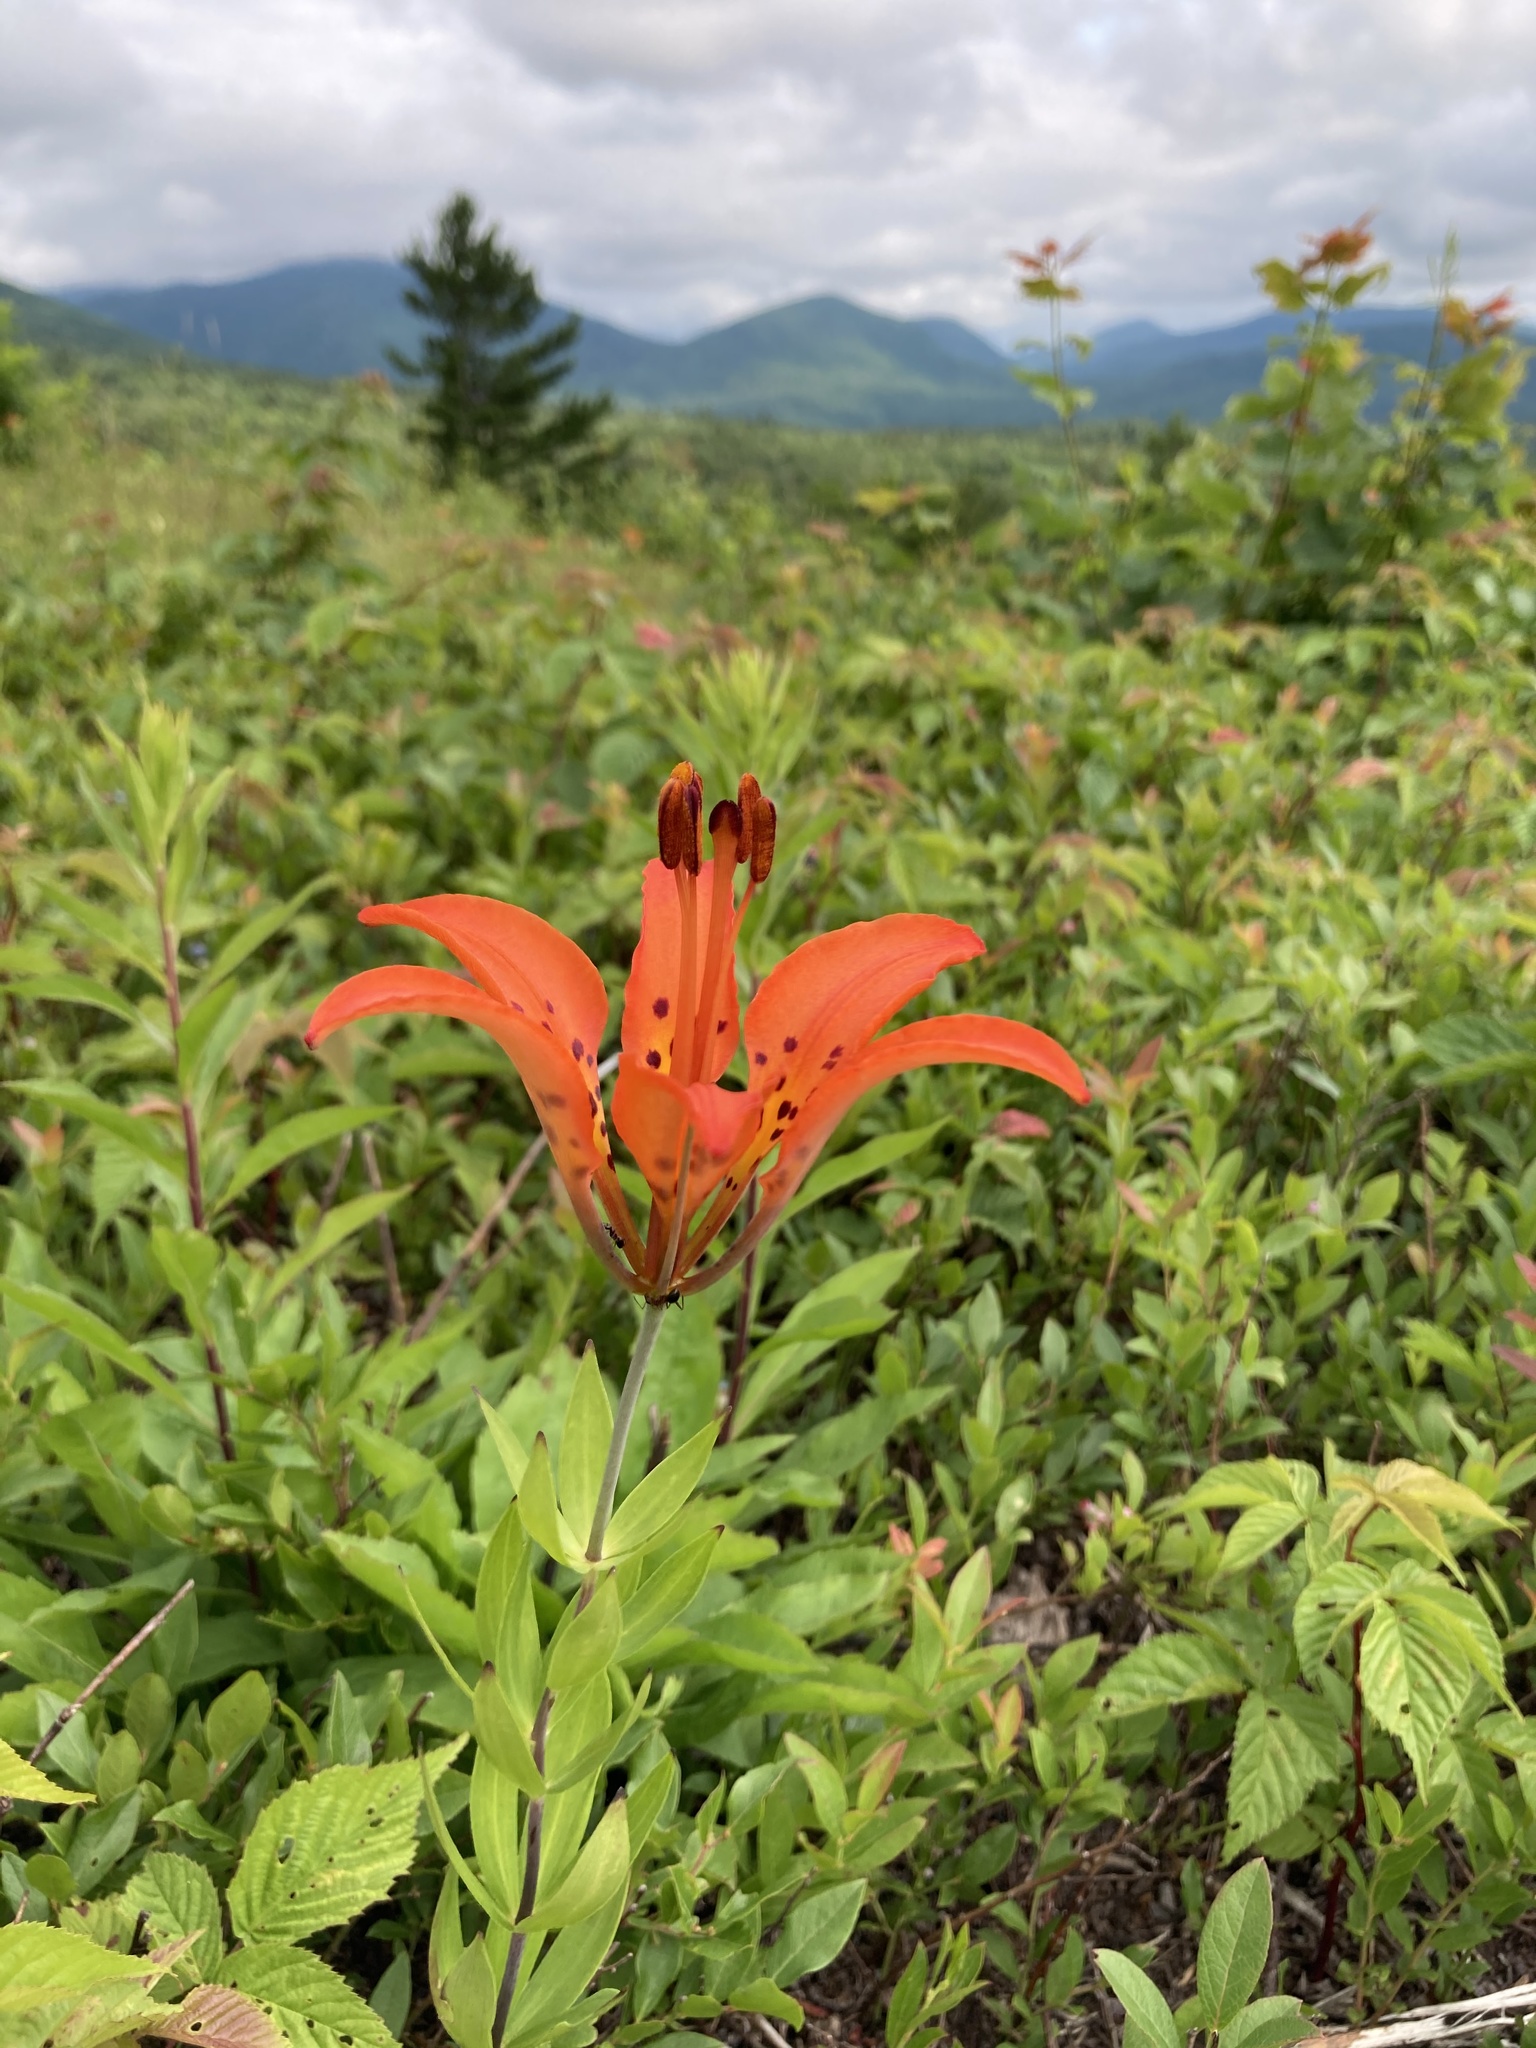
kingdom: Plantae
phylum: Tracheophyta
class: Liliopsida
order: Liliales
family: Liliaceae
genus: Lilium
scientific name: Lilium philadelphicum
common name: Red lily
